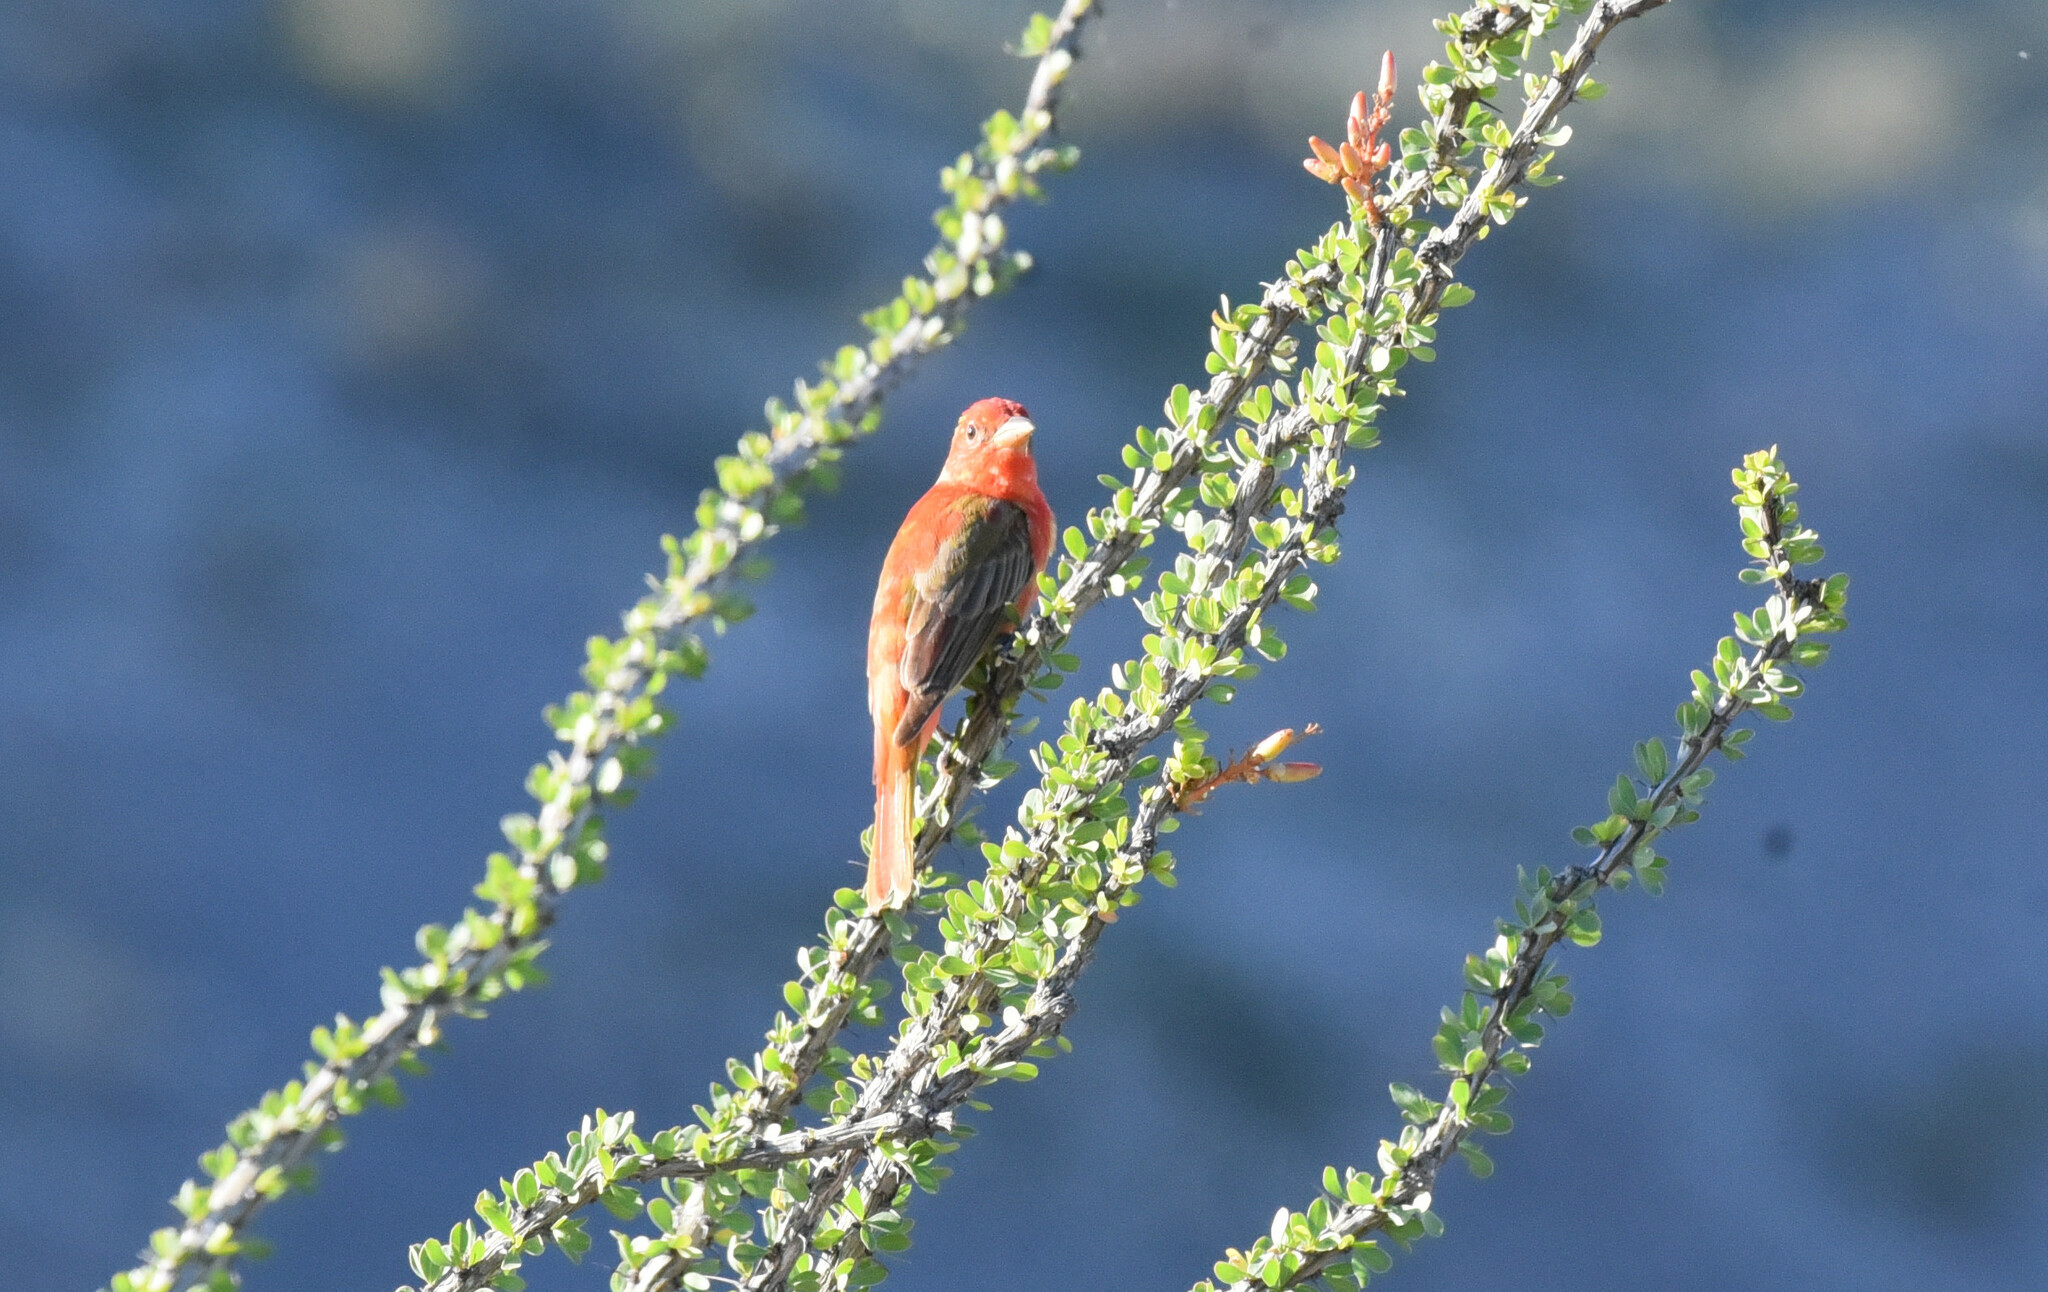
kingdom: Animalia
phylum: Chordata
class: Aves
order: Passeriformes
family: Cardinalidae
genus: Piranga
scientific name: Piranga rubra
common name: Summer tanager
